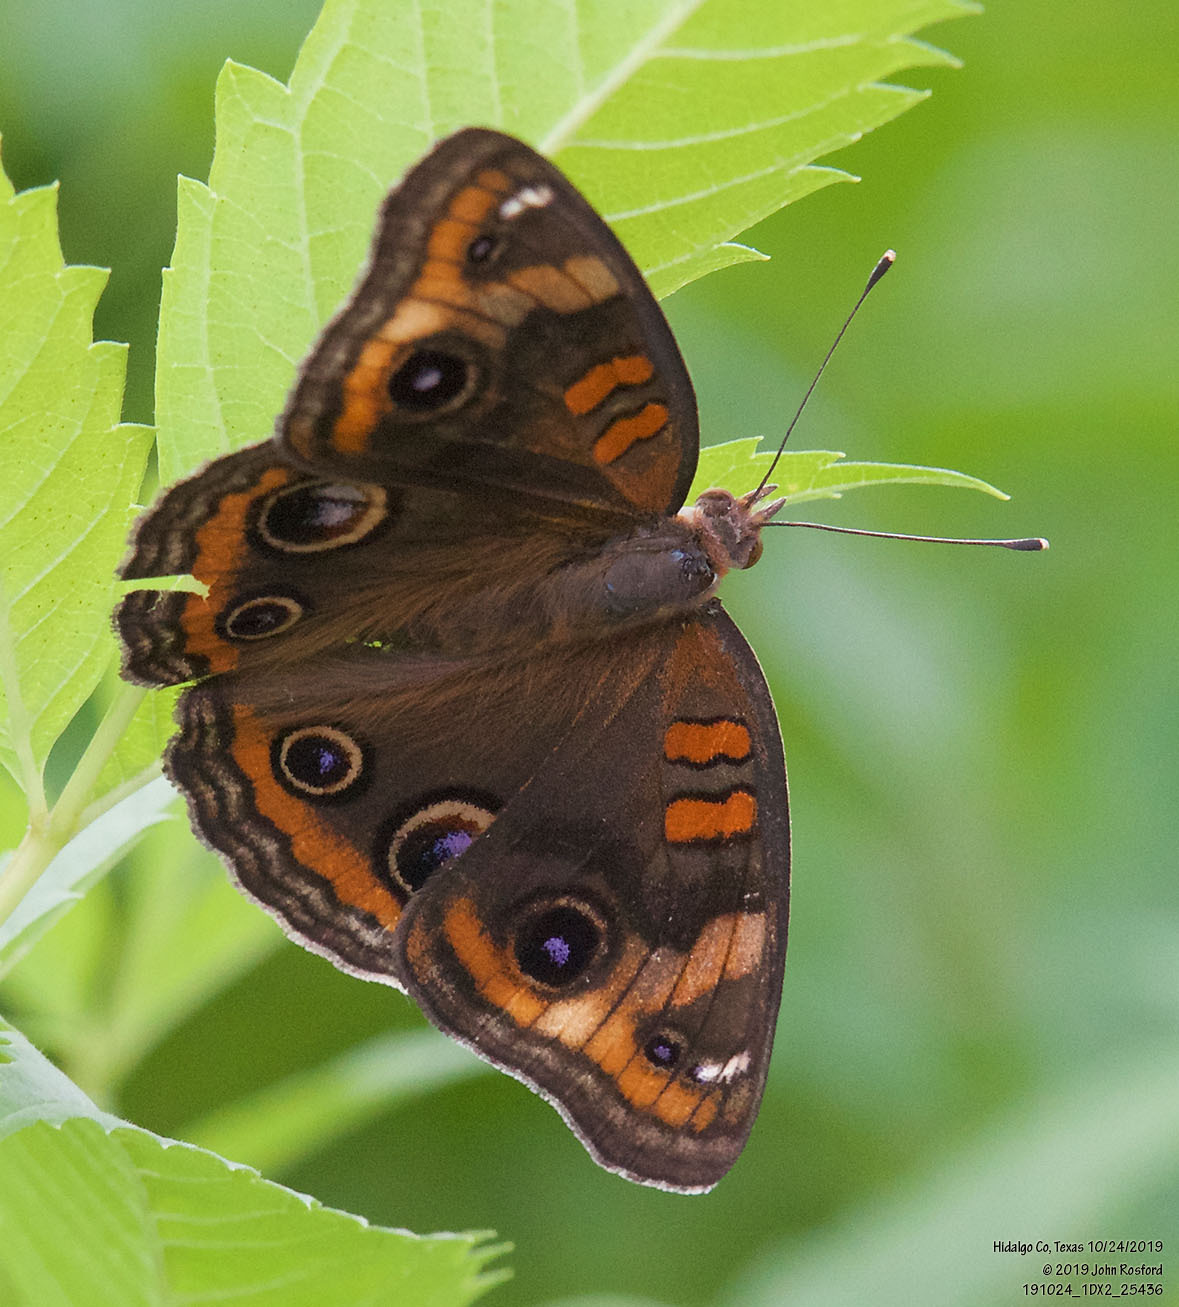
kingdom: Animalia
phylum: Arthropoda
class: Insecta
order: Lepidoptera
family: Nymphalidae
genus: Junonia
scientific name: Junonia stemosa
